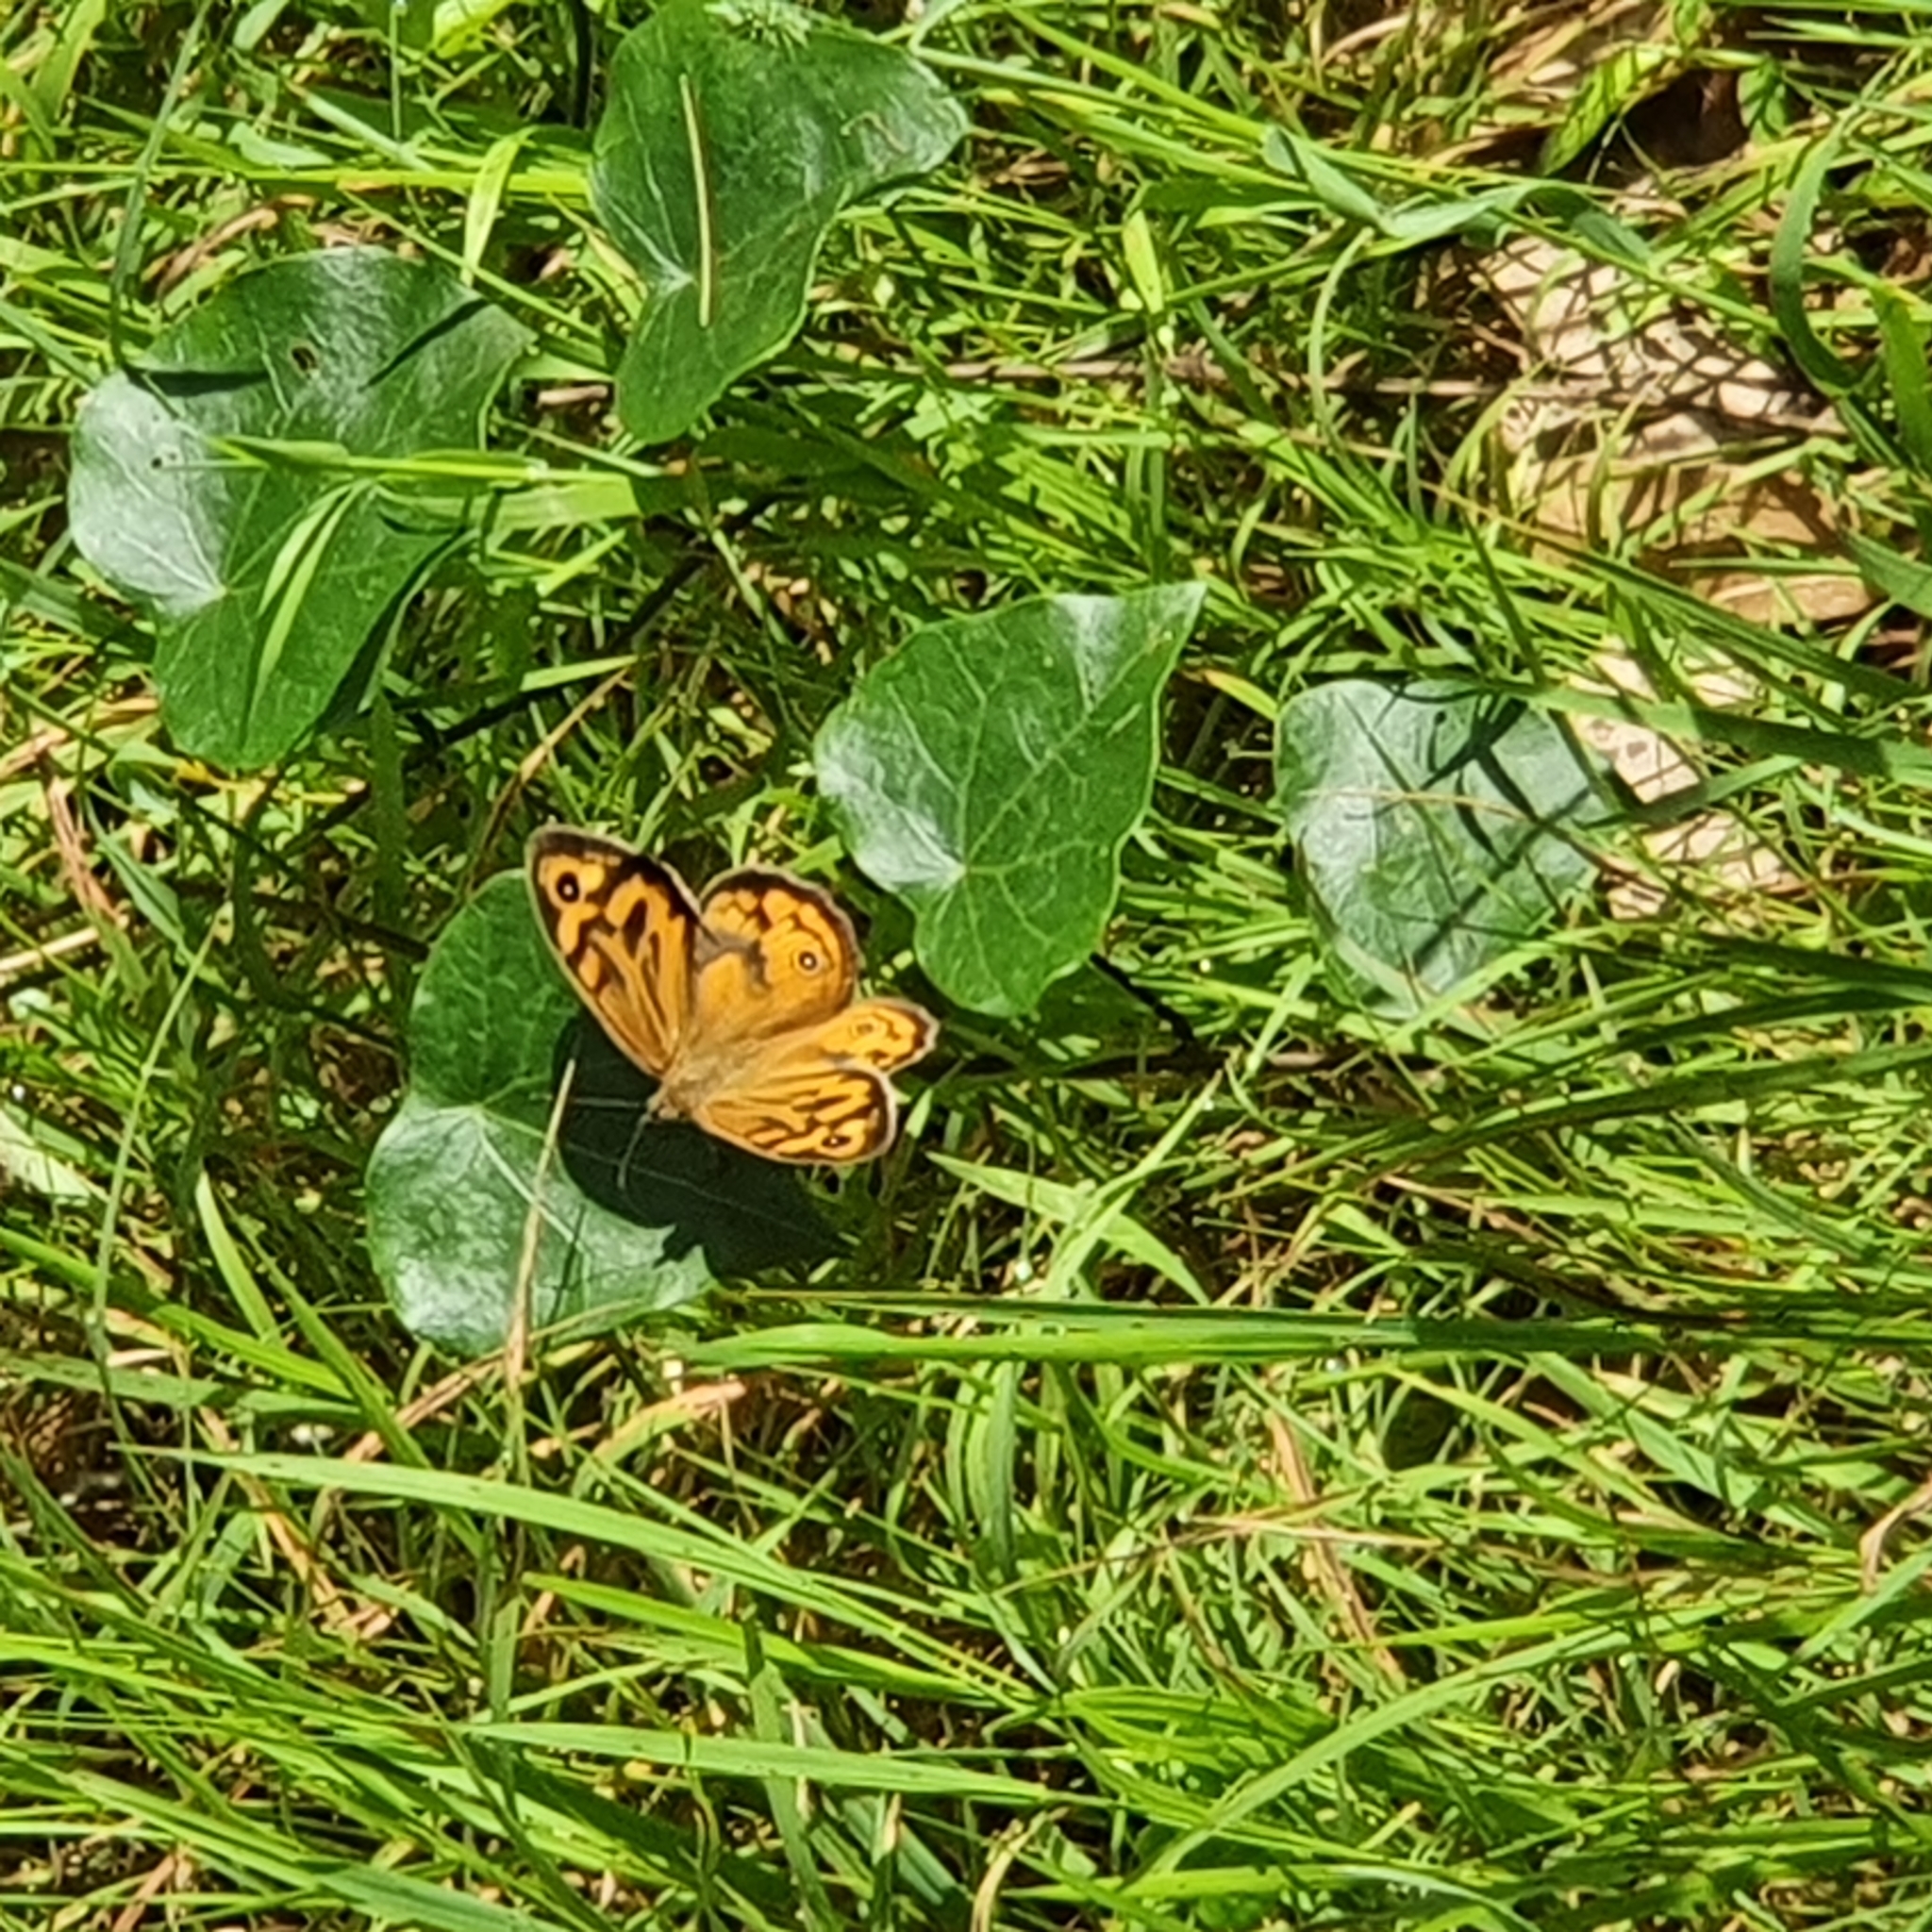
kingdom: Animalia
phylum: Arthropoda
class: Insecta
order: Lepidoptera
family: Nymphalidae
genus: Heteronympha
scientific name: Heteronympha merope
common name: Common brown
